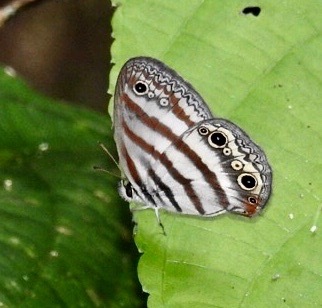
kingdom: Animalia
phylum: Arthropoda
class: Insecta
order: Lepidoptera
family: Nymphalidae
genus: Euptychia
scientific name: Euptychia mollina
